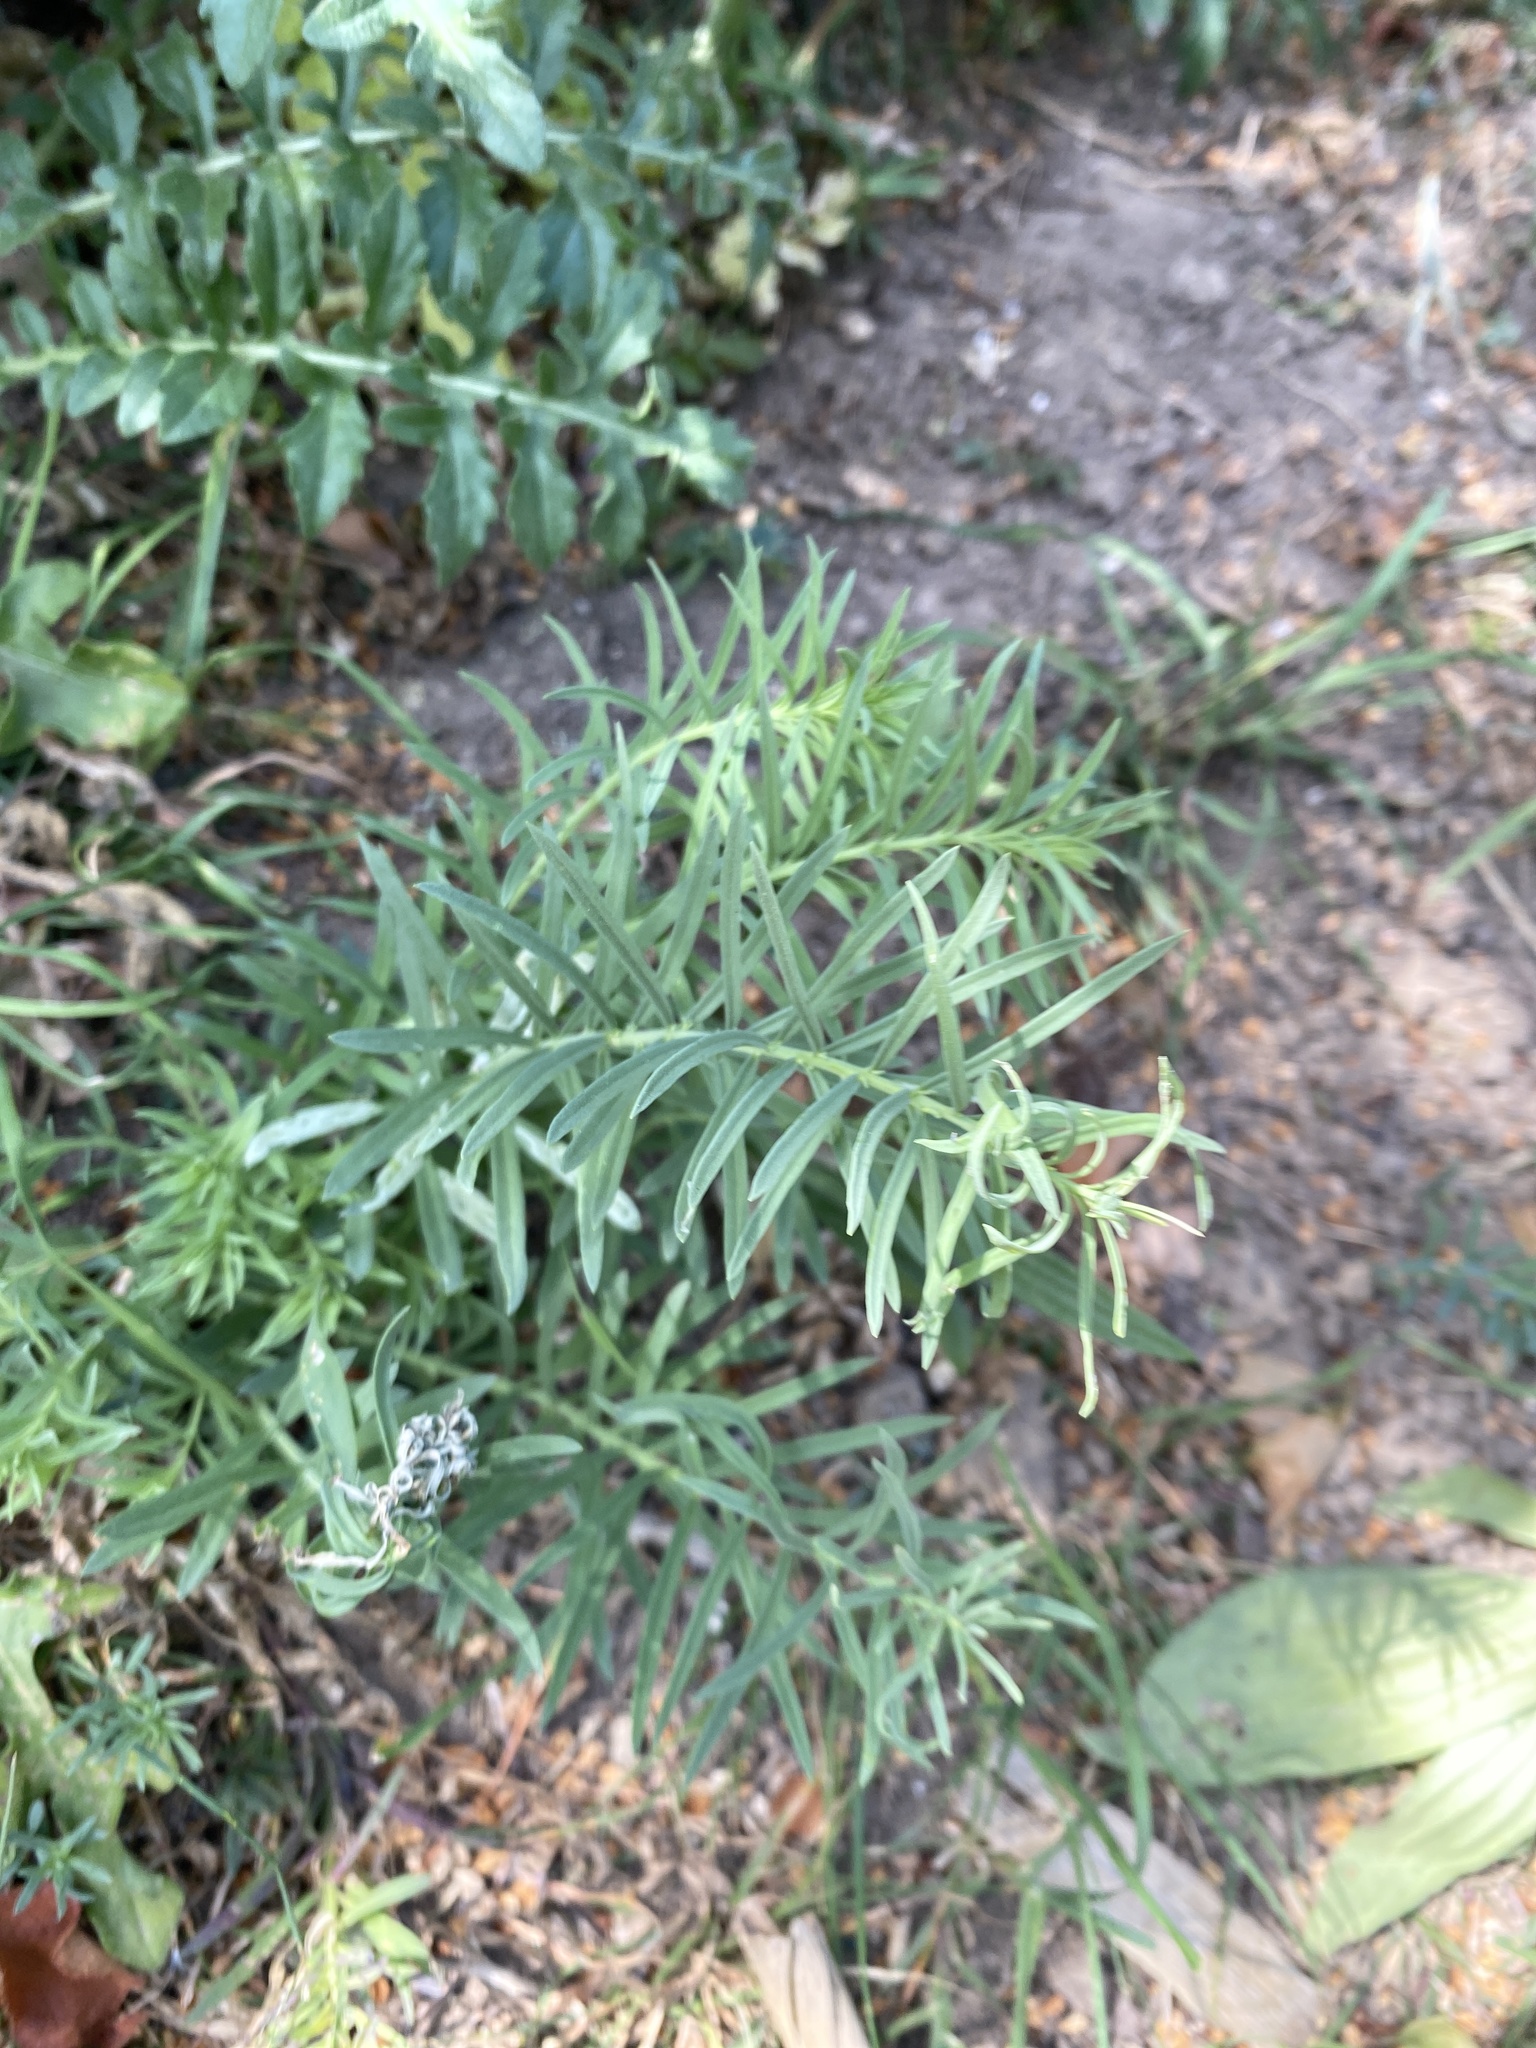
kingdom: Plantae
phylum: Tracheophyta
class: Magnoliopsida
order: Lamiales
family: Plantaginaceae
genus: Linaria
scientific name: Linaria vulgaris
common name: Butter and eggs
